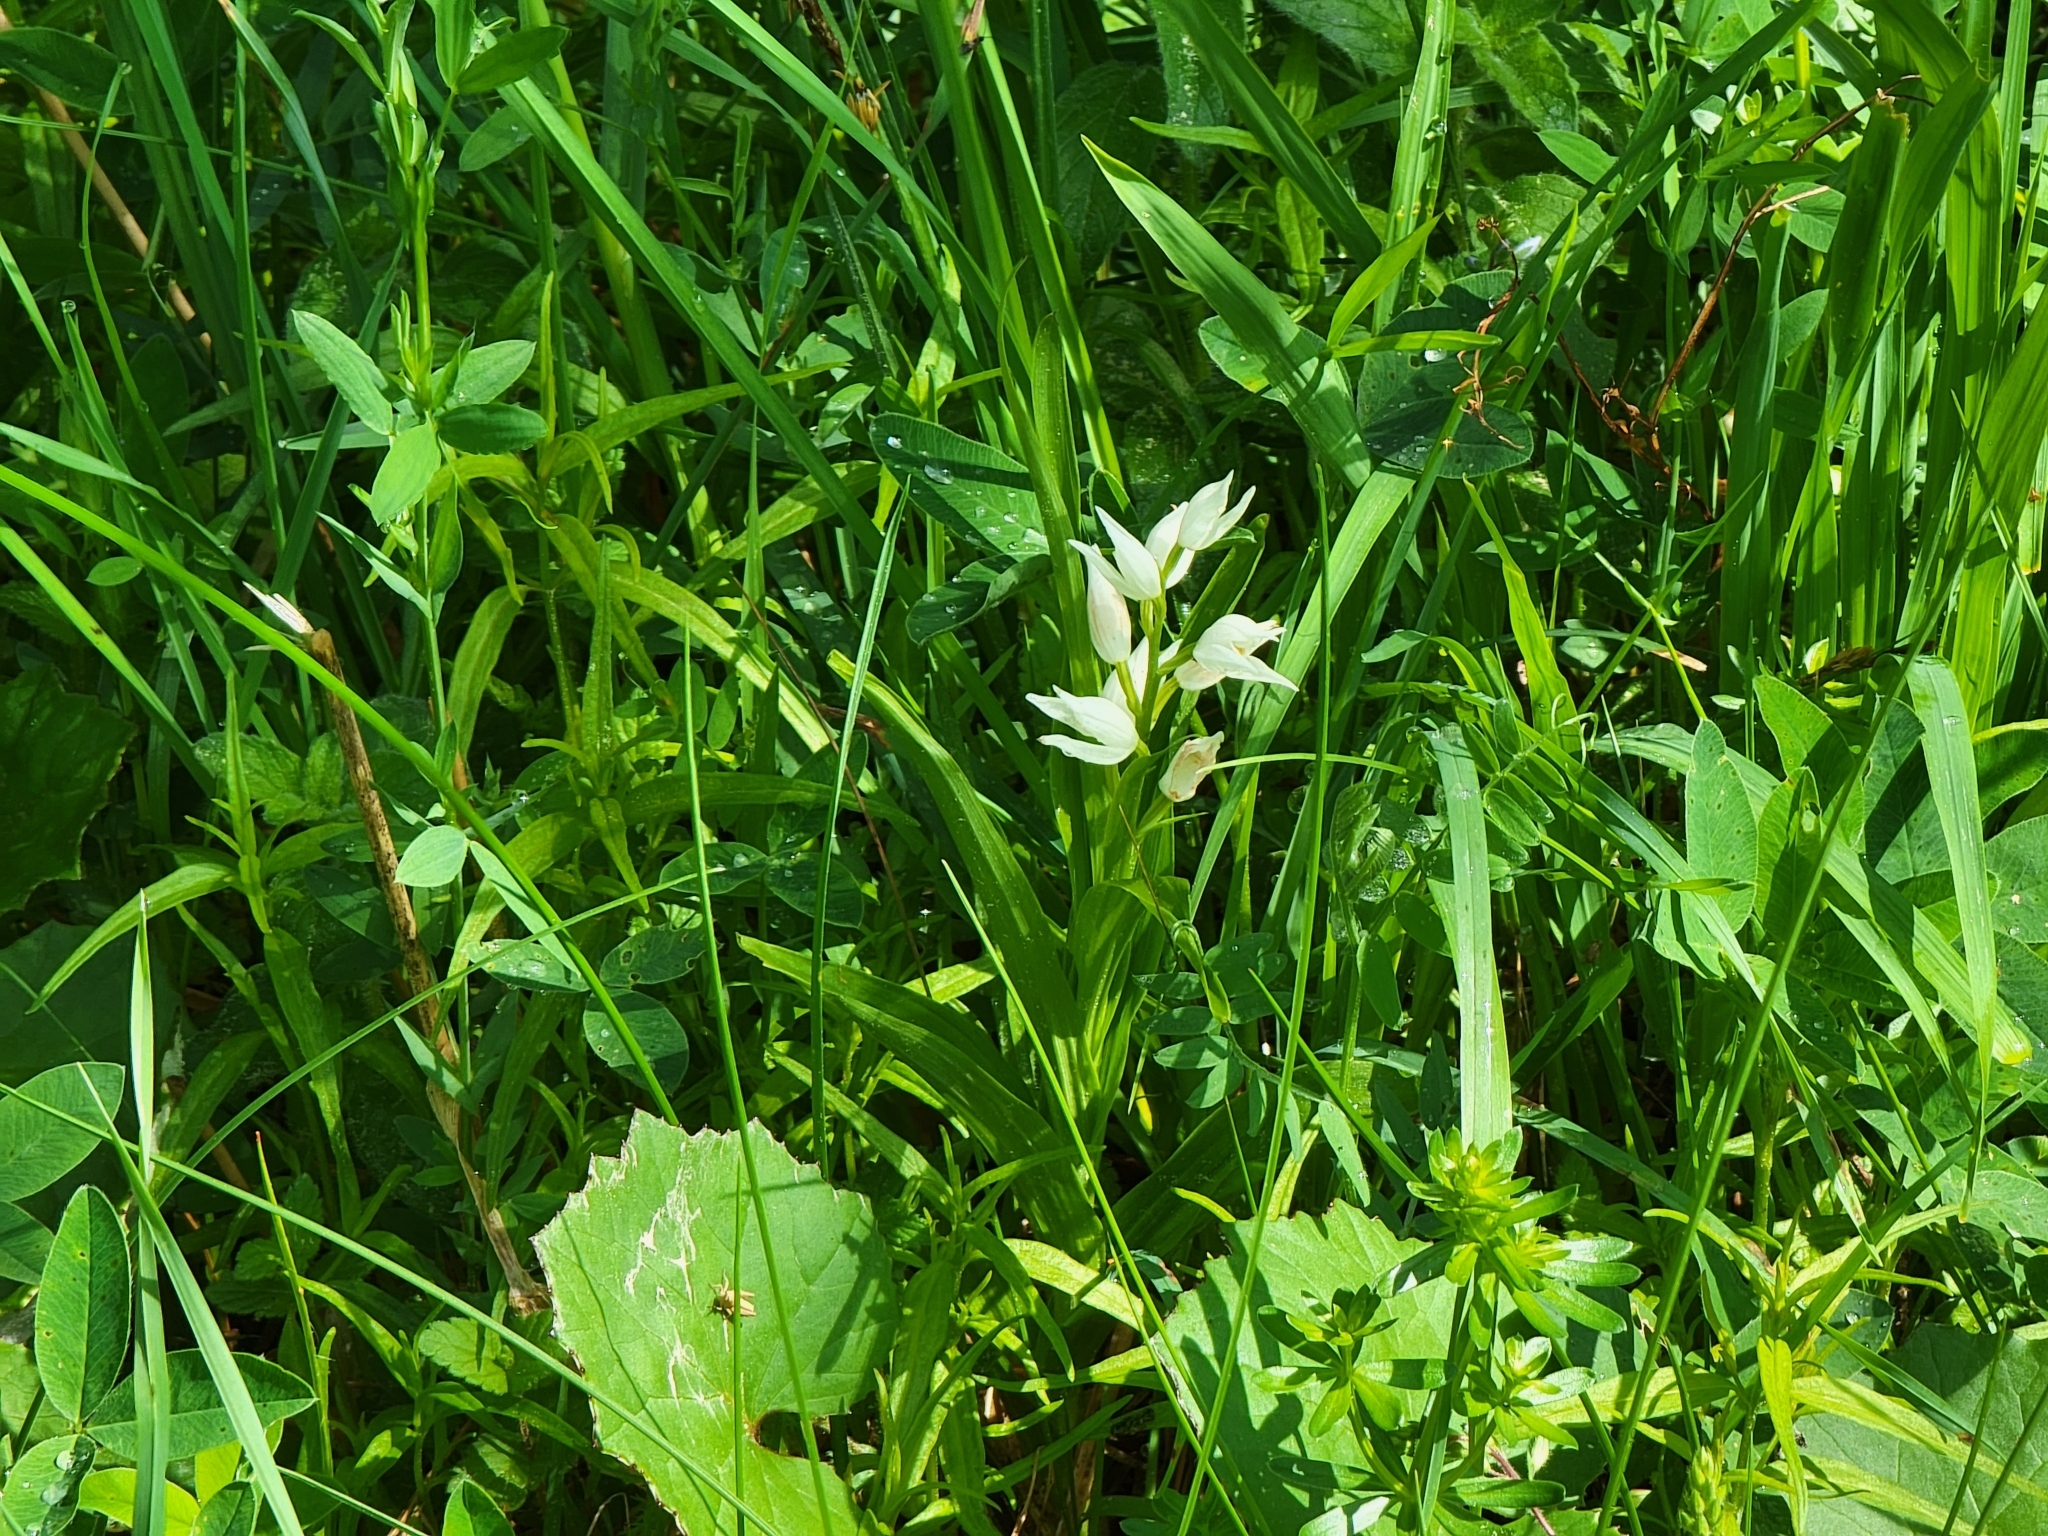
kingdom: Plantae
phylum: Tracheophyta
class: Liliopsida
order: Asparagales
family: Orchidaceae
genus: Cephalanthera
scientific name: Cephalanthera longifolia
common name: Narrow-leaved helleborine
